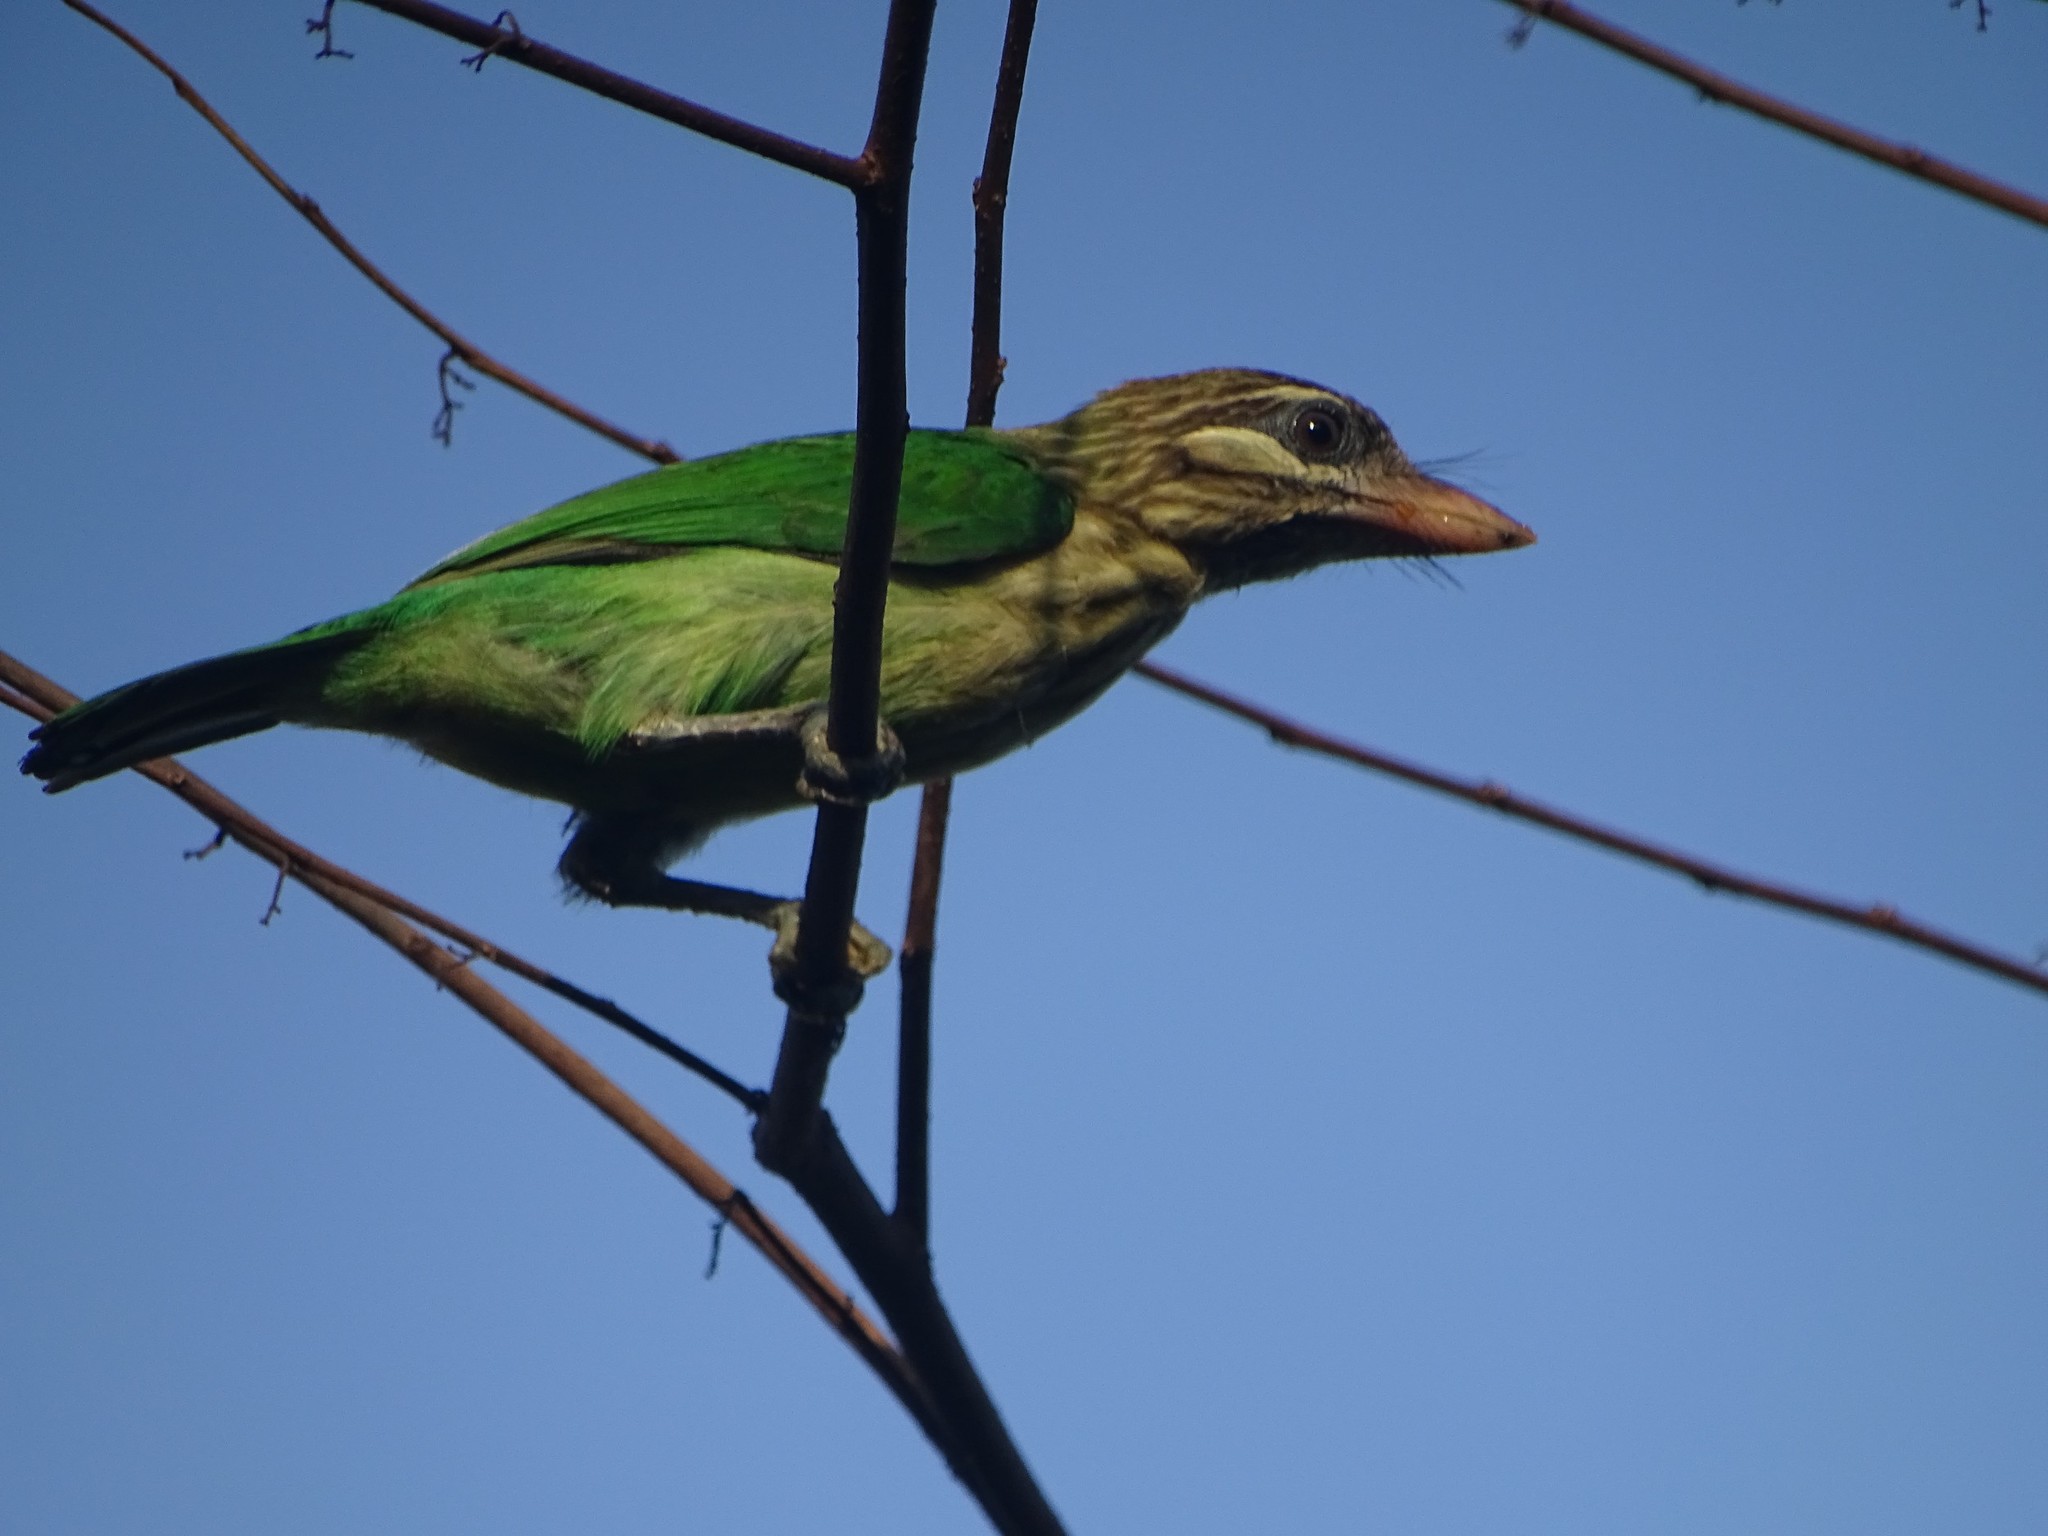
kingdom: Animalia
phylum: Chordata
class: Aves
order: Piciformes
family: Megalaimidae
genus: Psilopogon
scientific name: Psilopogon viridis
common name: White-cheeked barbet
